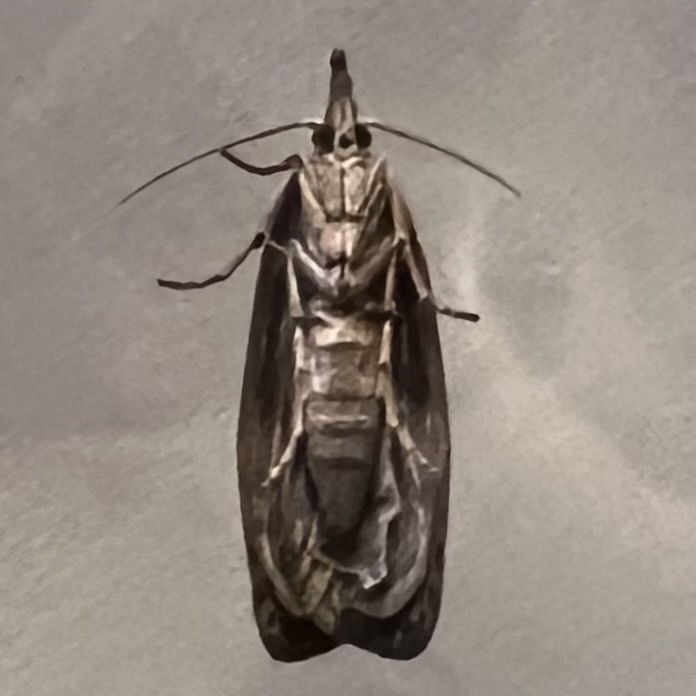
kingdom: Animalia
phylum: Arthropoda
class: Insecta
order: Lepidoptera
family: Pyralidae
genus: Aphomia
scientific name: Aphomia sociella
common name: Bee moth
